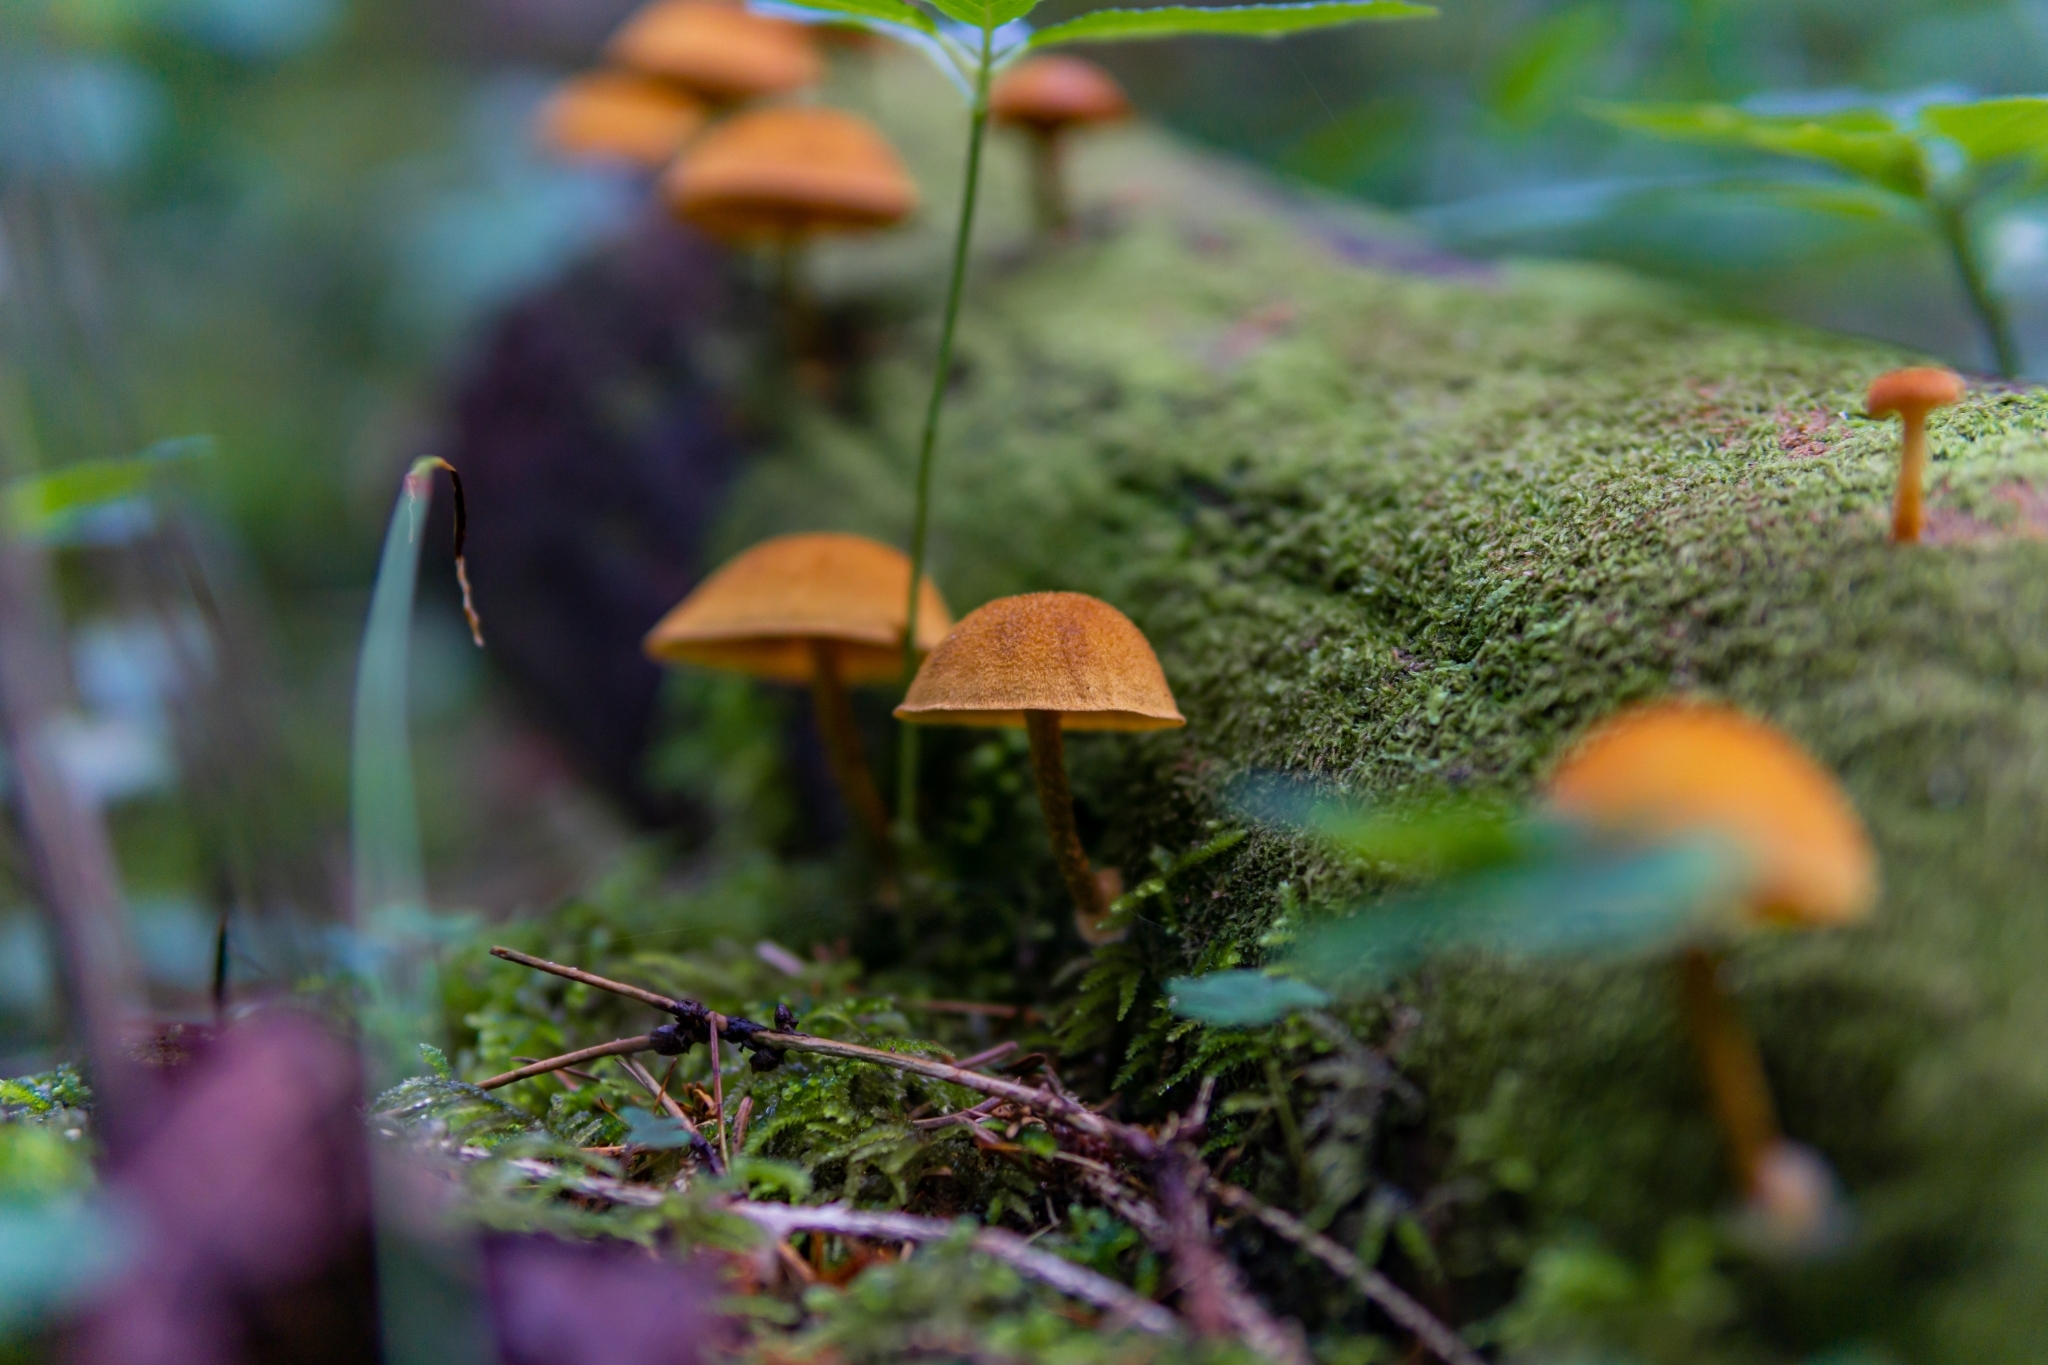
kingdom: Fungi
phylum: Basidiomycota
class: Agaricomycetes
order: Agaricales
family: Tubariaceae
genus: Flammulaster
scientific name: Flammulaster muricatus
